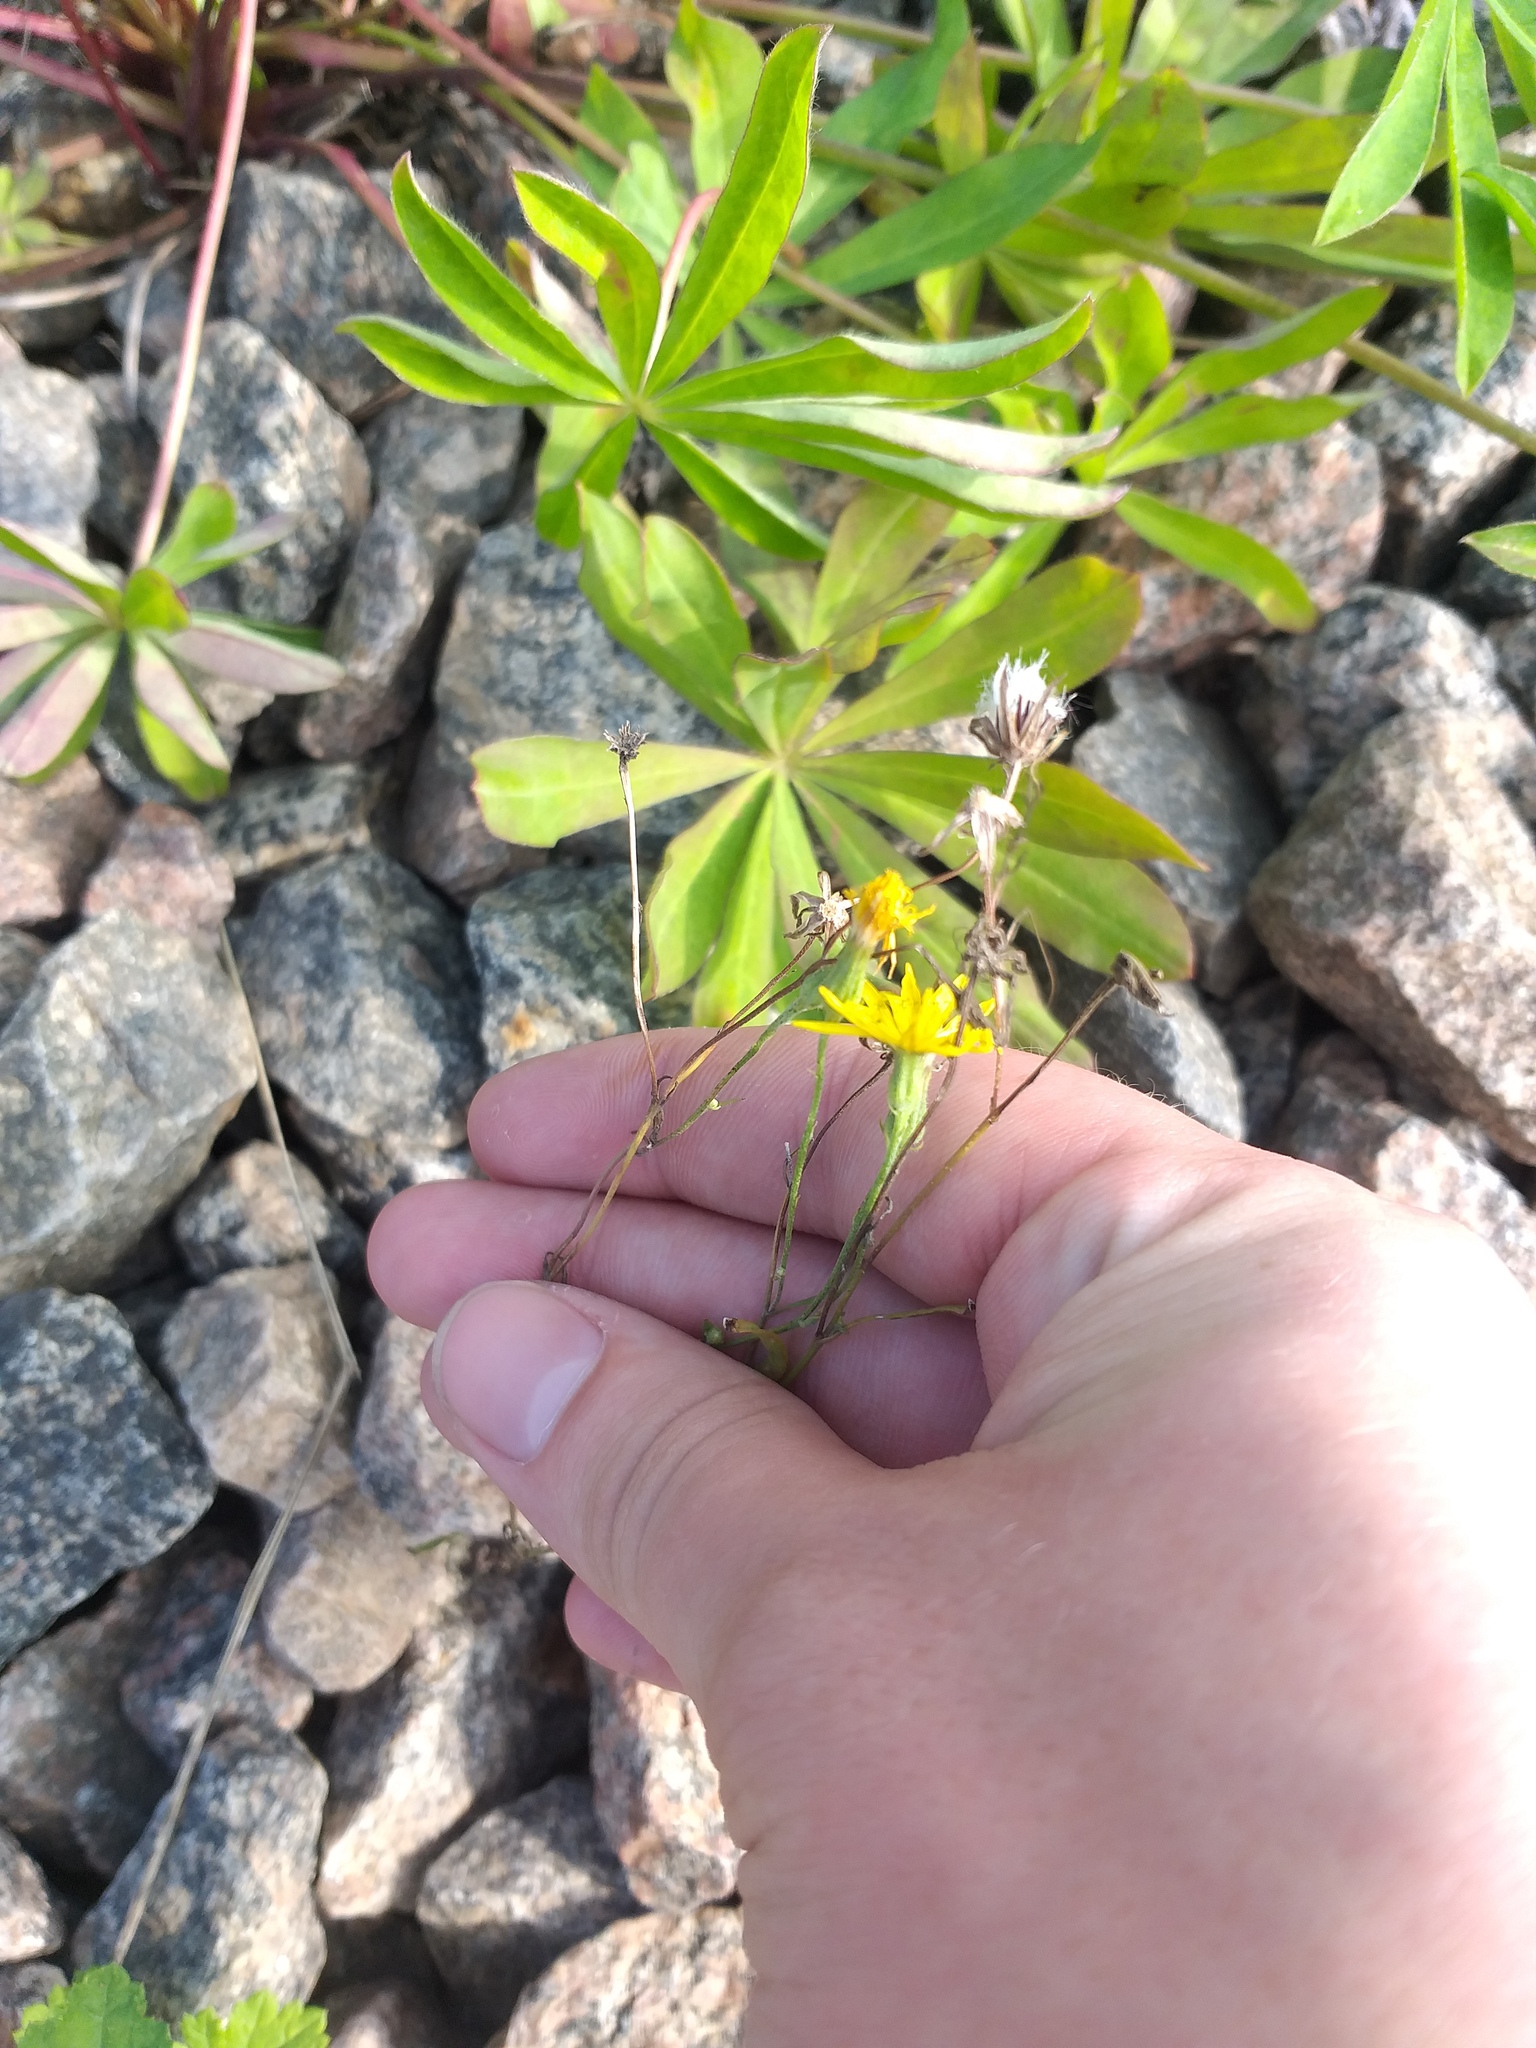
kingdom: Plantae
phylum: Tracheophyta
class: Magnoliopsida
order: Asterales
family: Asteraceae
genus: Crepis
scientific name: Crepis tectorum
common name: Narrow-leaved hawk's-beard
